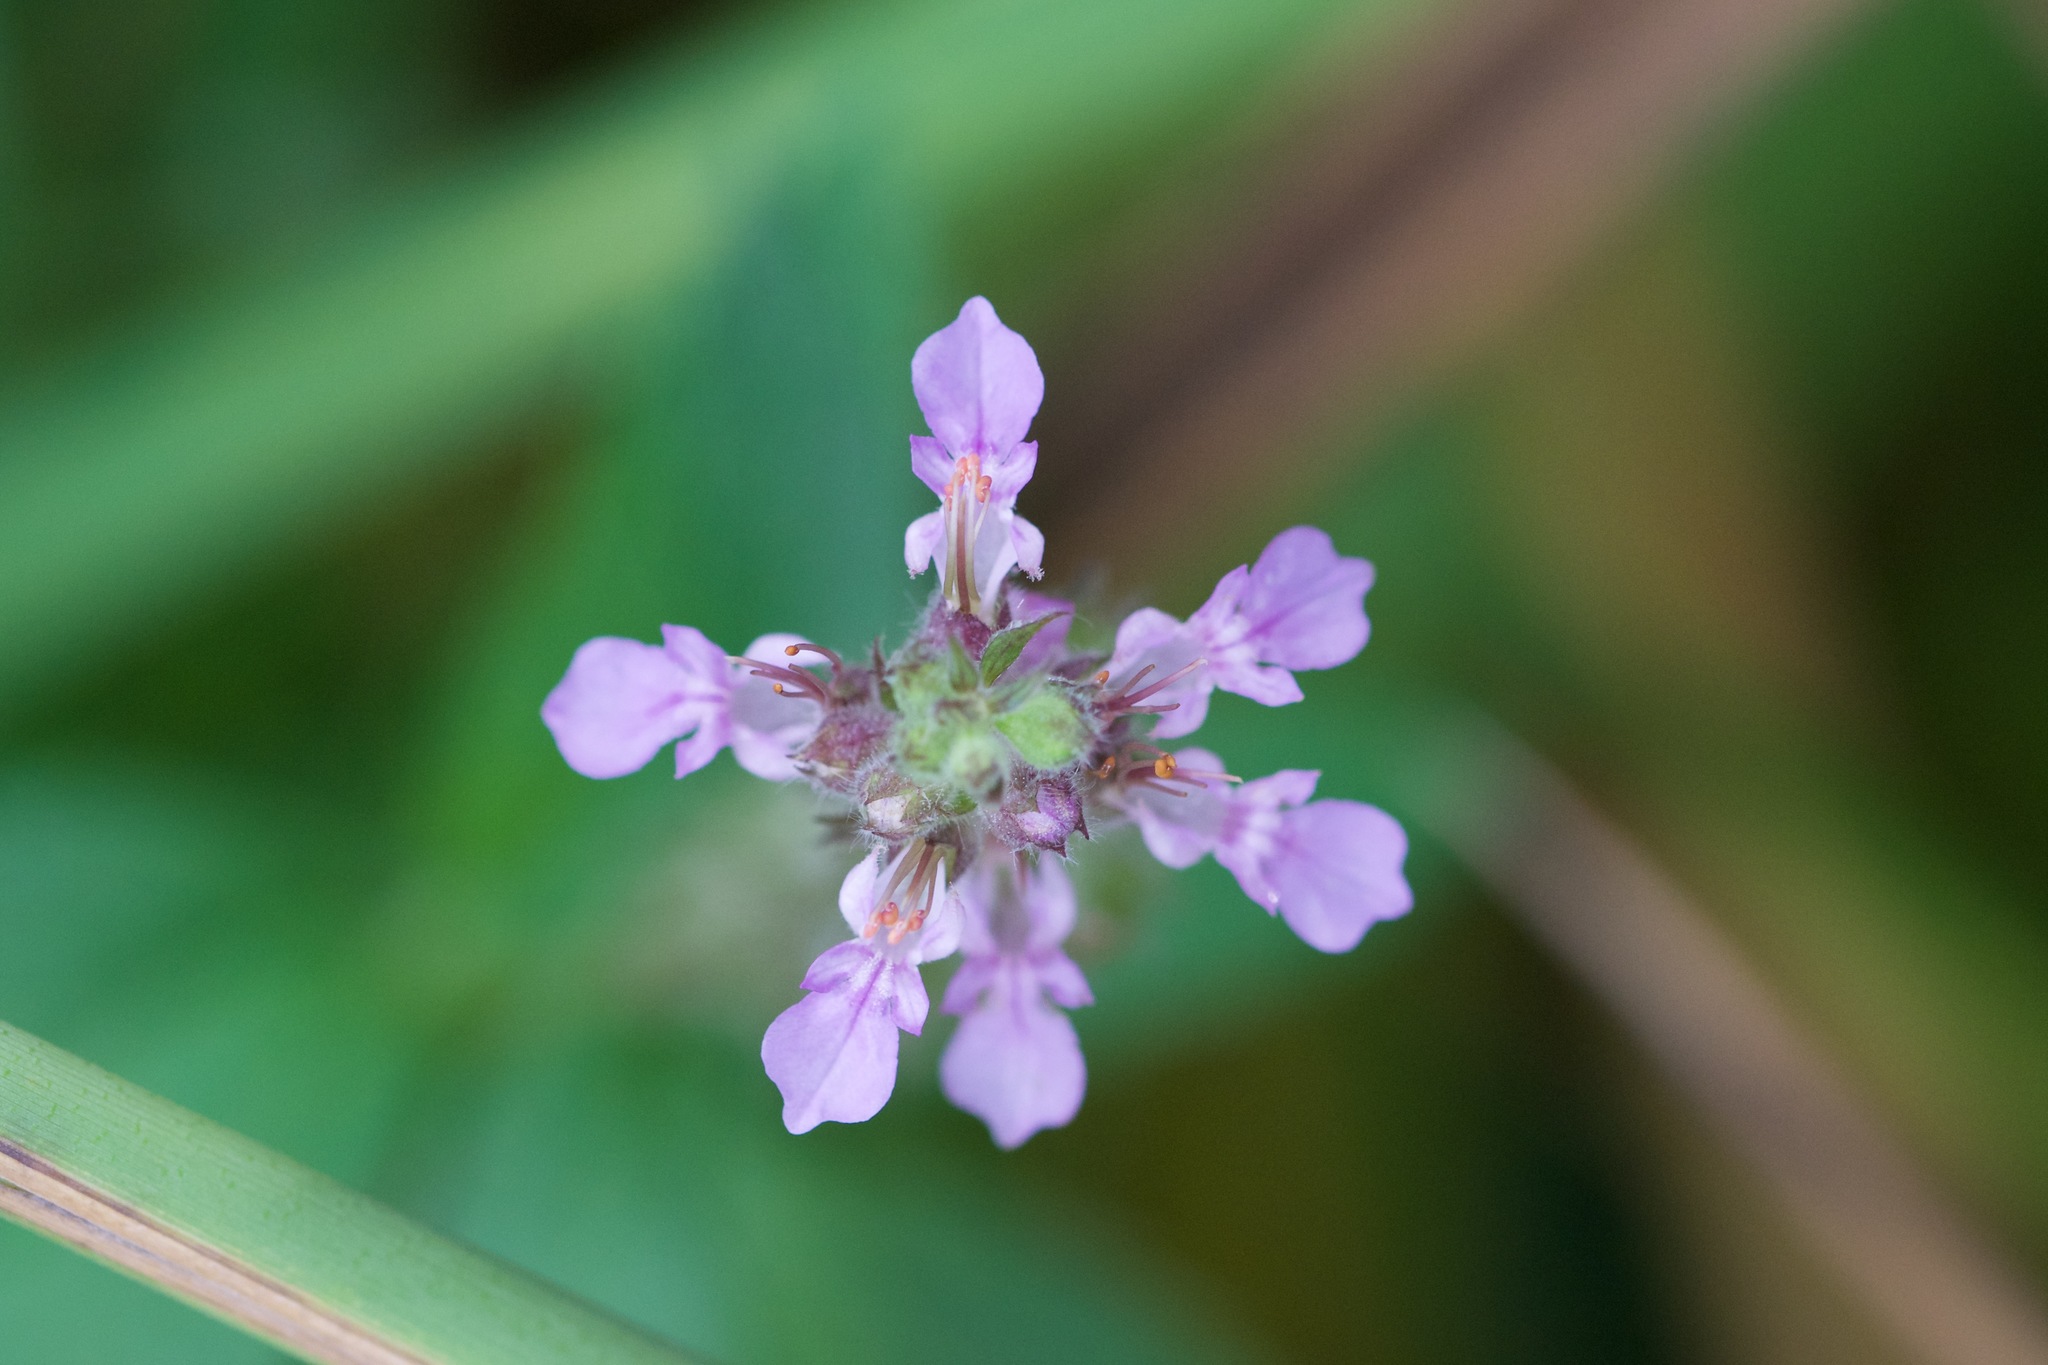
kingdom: Plantae
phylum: Tracheophyta
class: Magnoliopsida
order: Lamiales
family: Lamiaceae
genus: Teucrium
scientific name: Teucrium canadense
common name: American germander
